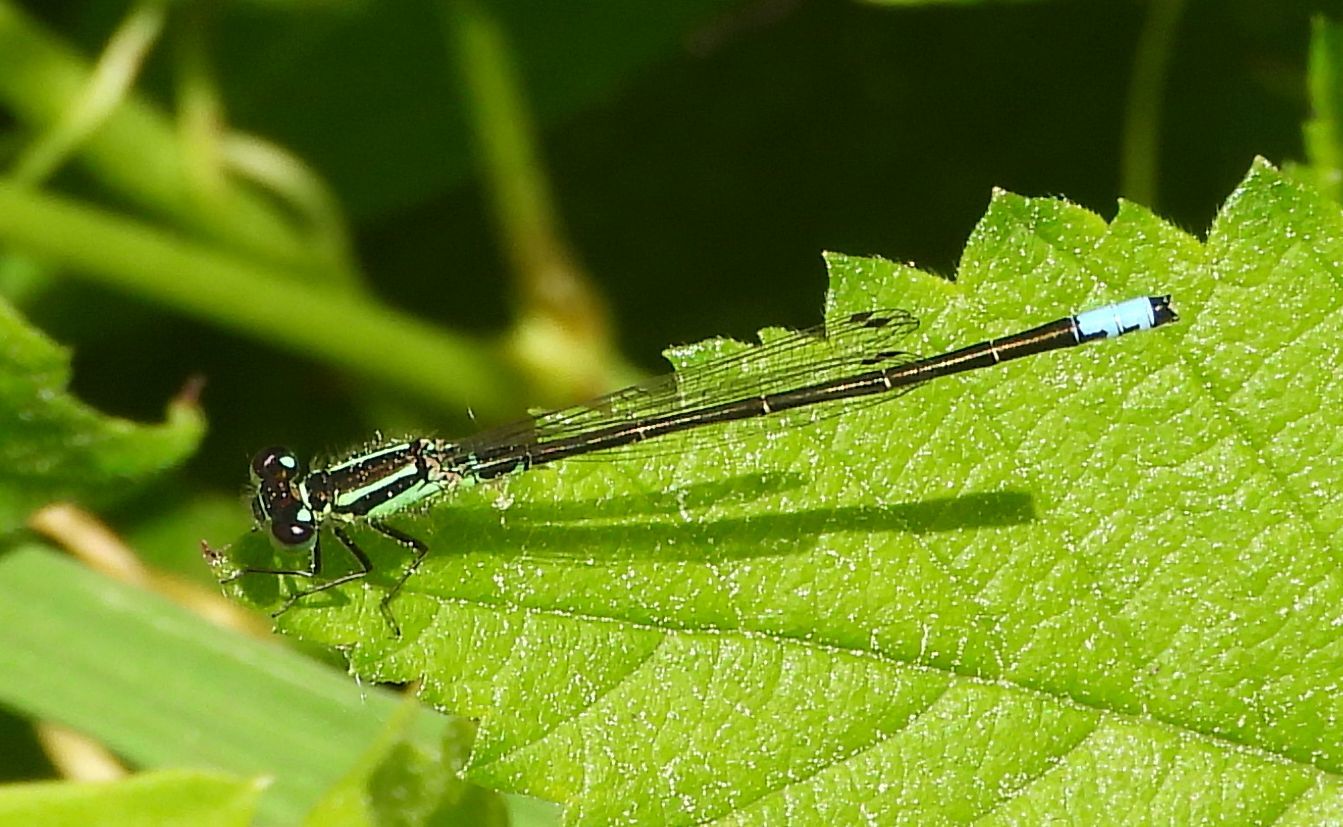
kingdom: Animalia
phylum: Arthropoda
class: Insecta
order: Odonata
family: Coenagrionidae
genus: Ischnura
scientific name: Ischnura verticalis
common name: Eastern forktail
